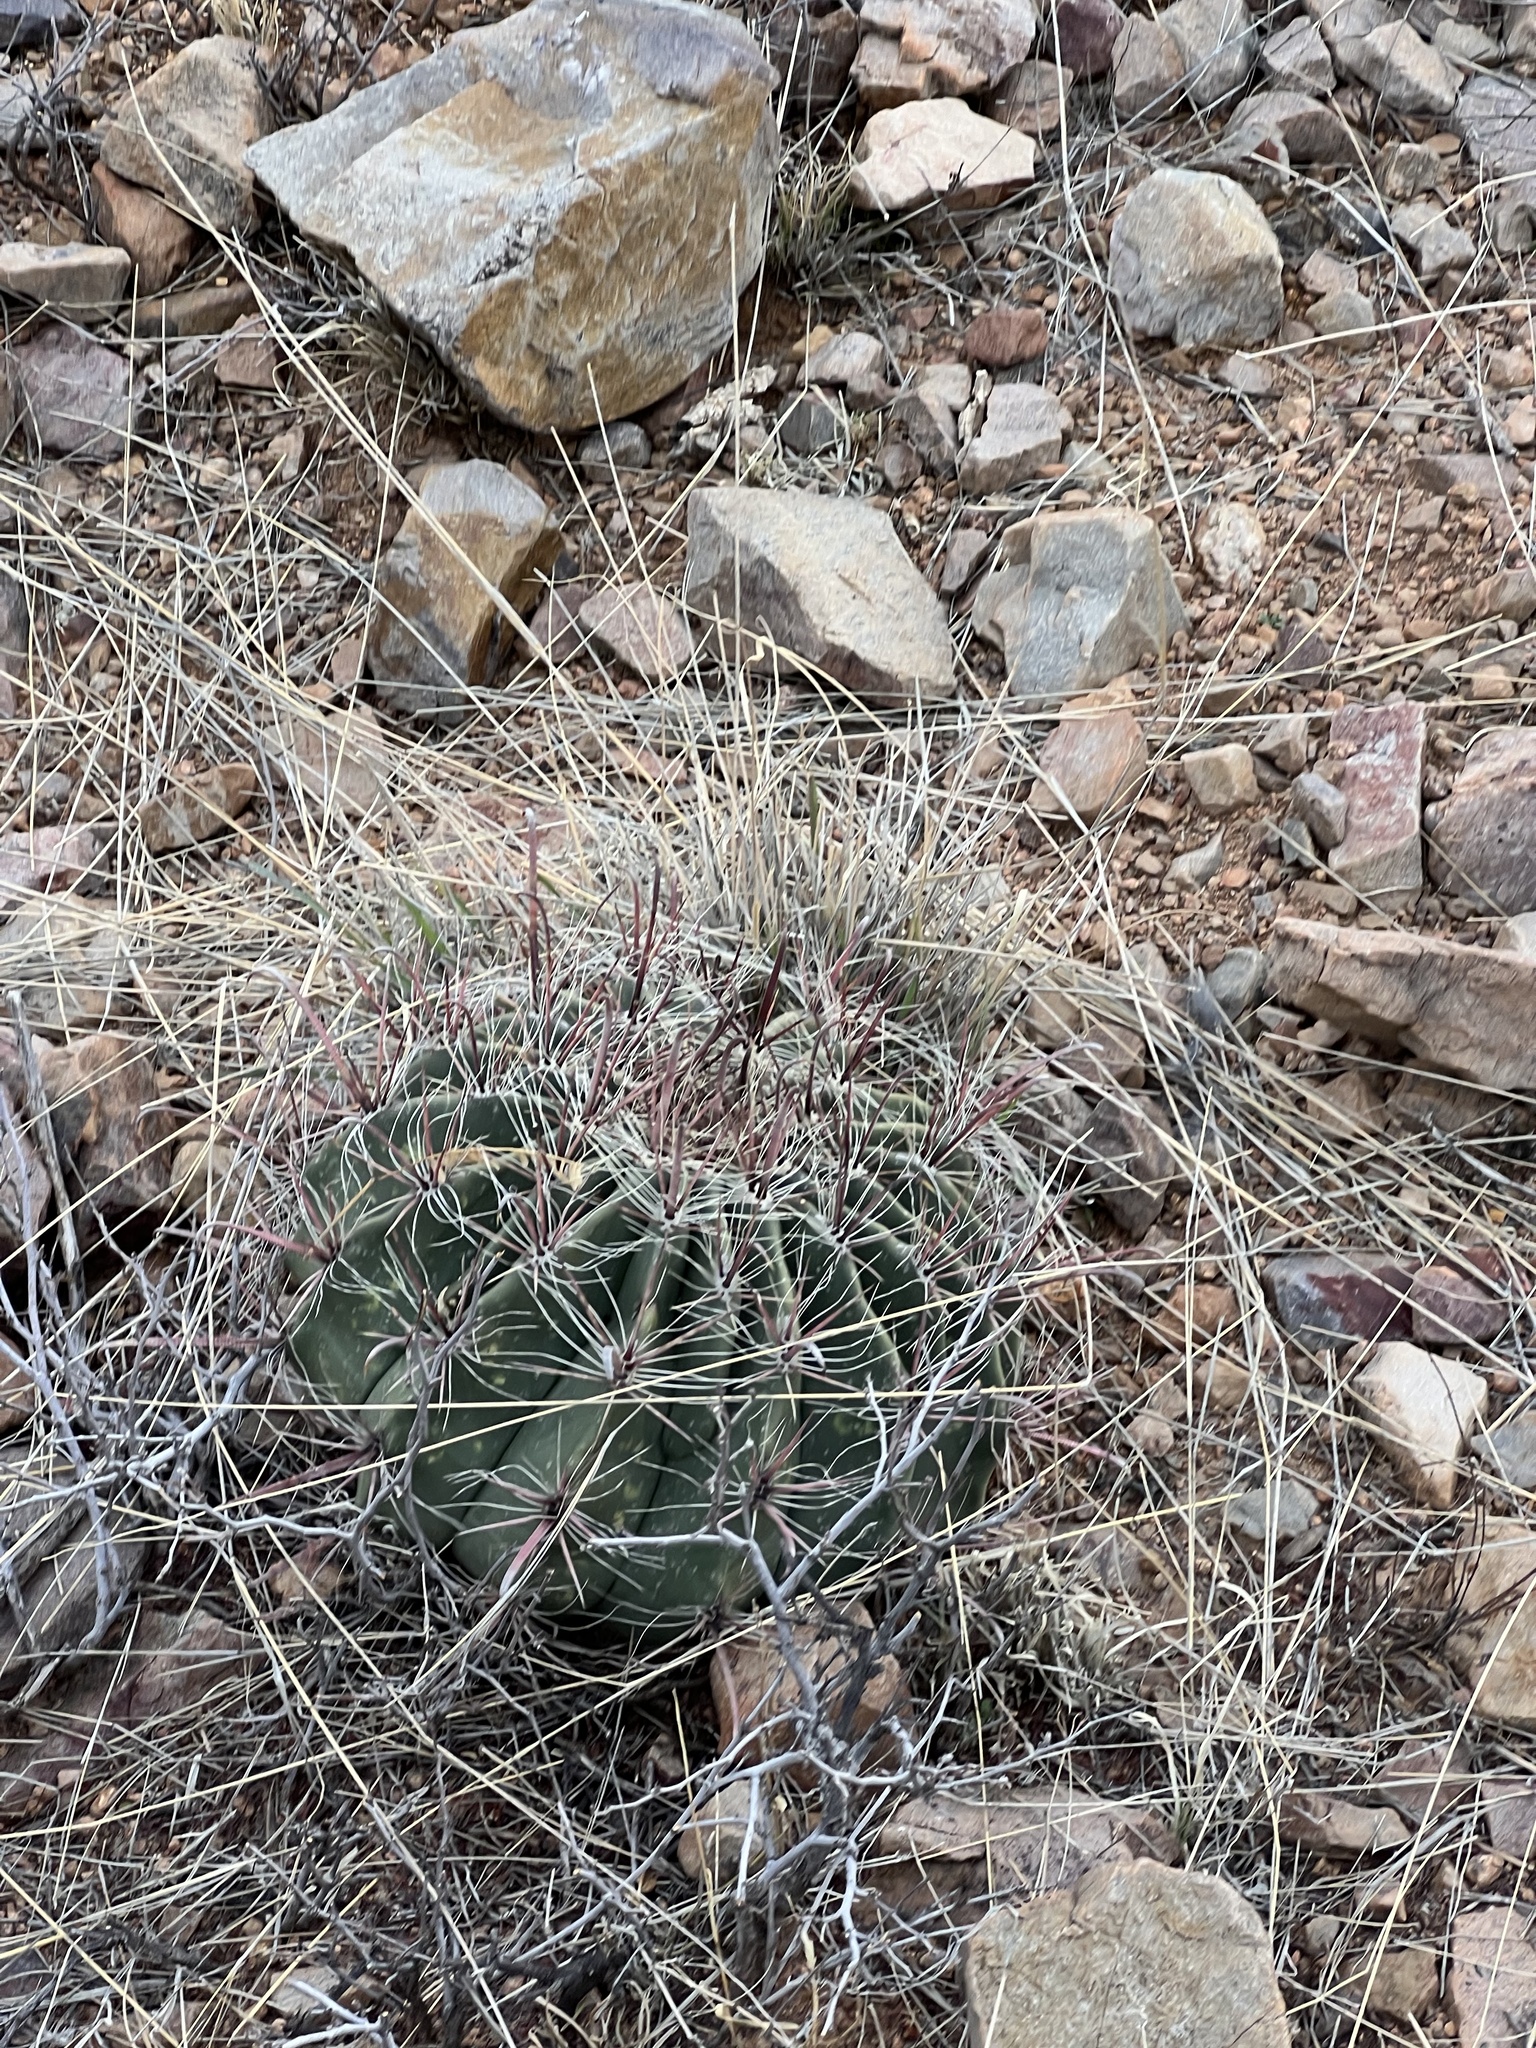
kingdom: Plantae
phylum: Tracheophyta
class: Magnoliopsida
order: Caryophyllales
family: Cactaceae
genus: Ferocactus
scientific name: Ferocactus wislizeni
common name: Candy barrel cactus
